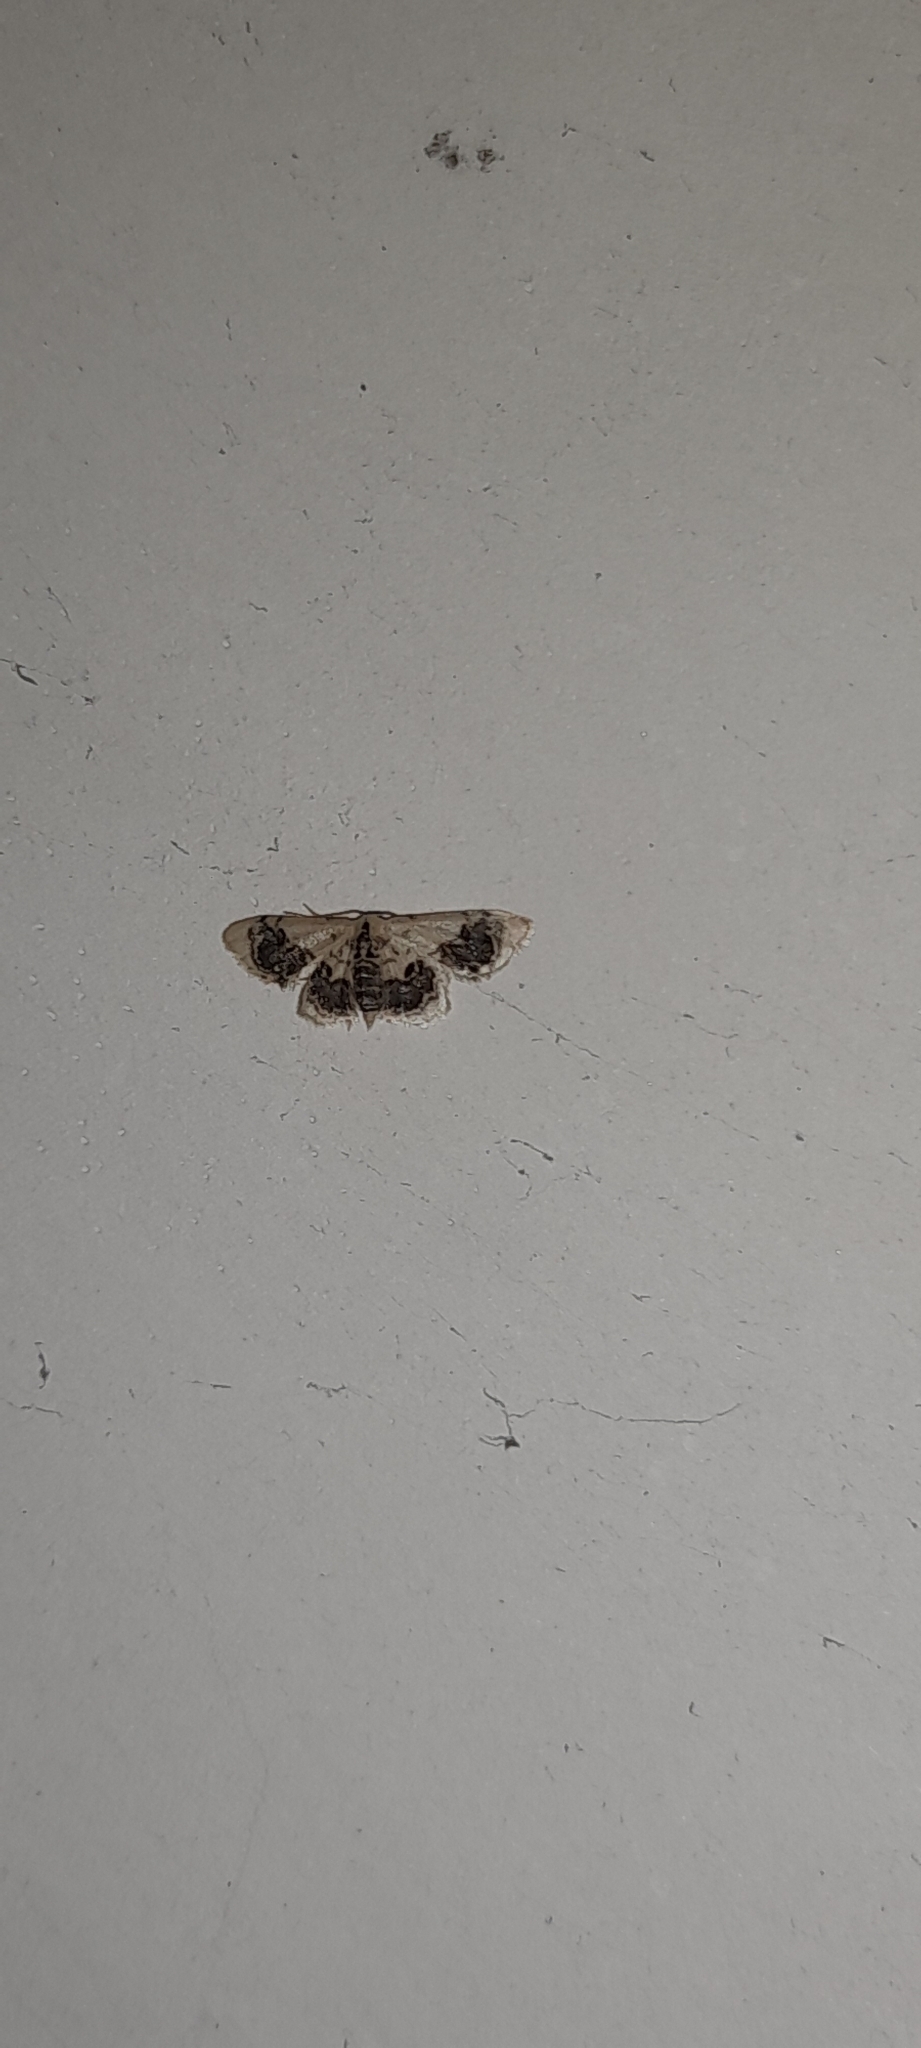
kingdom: Animalia
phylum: Arthropoda
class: Insecta
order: Lepidoptera
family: Geometridae
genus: Idaea
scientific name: Idaea macrospila
